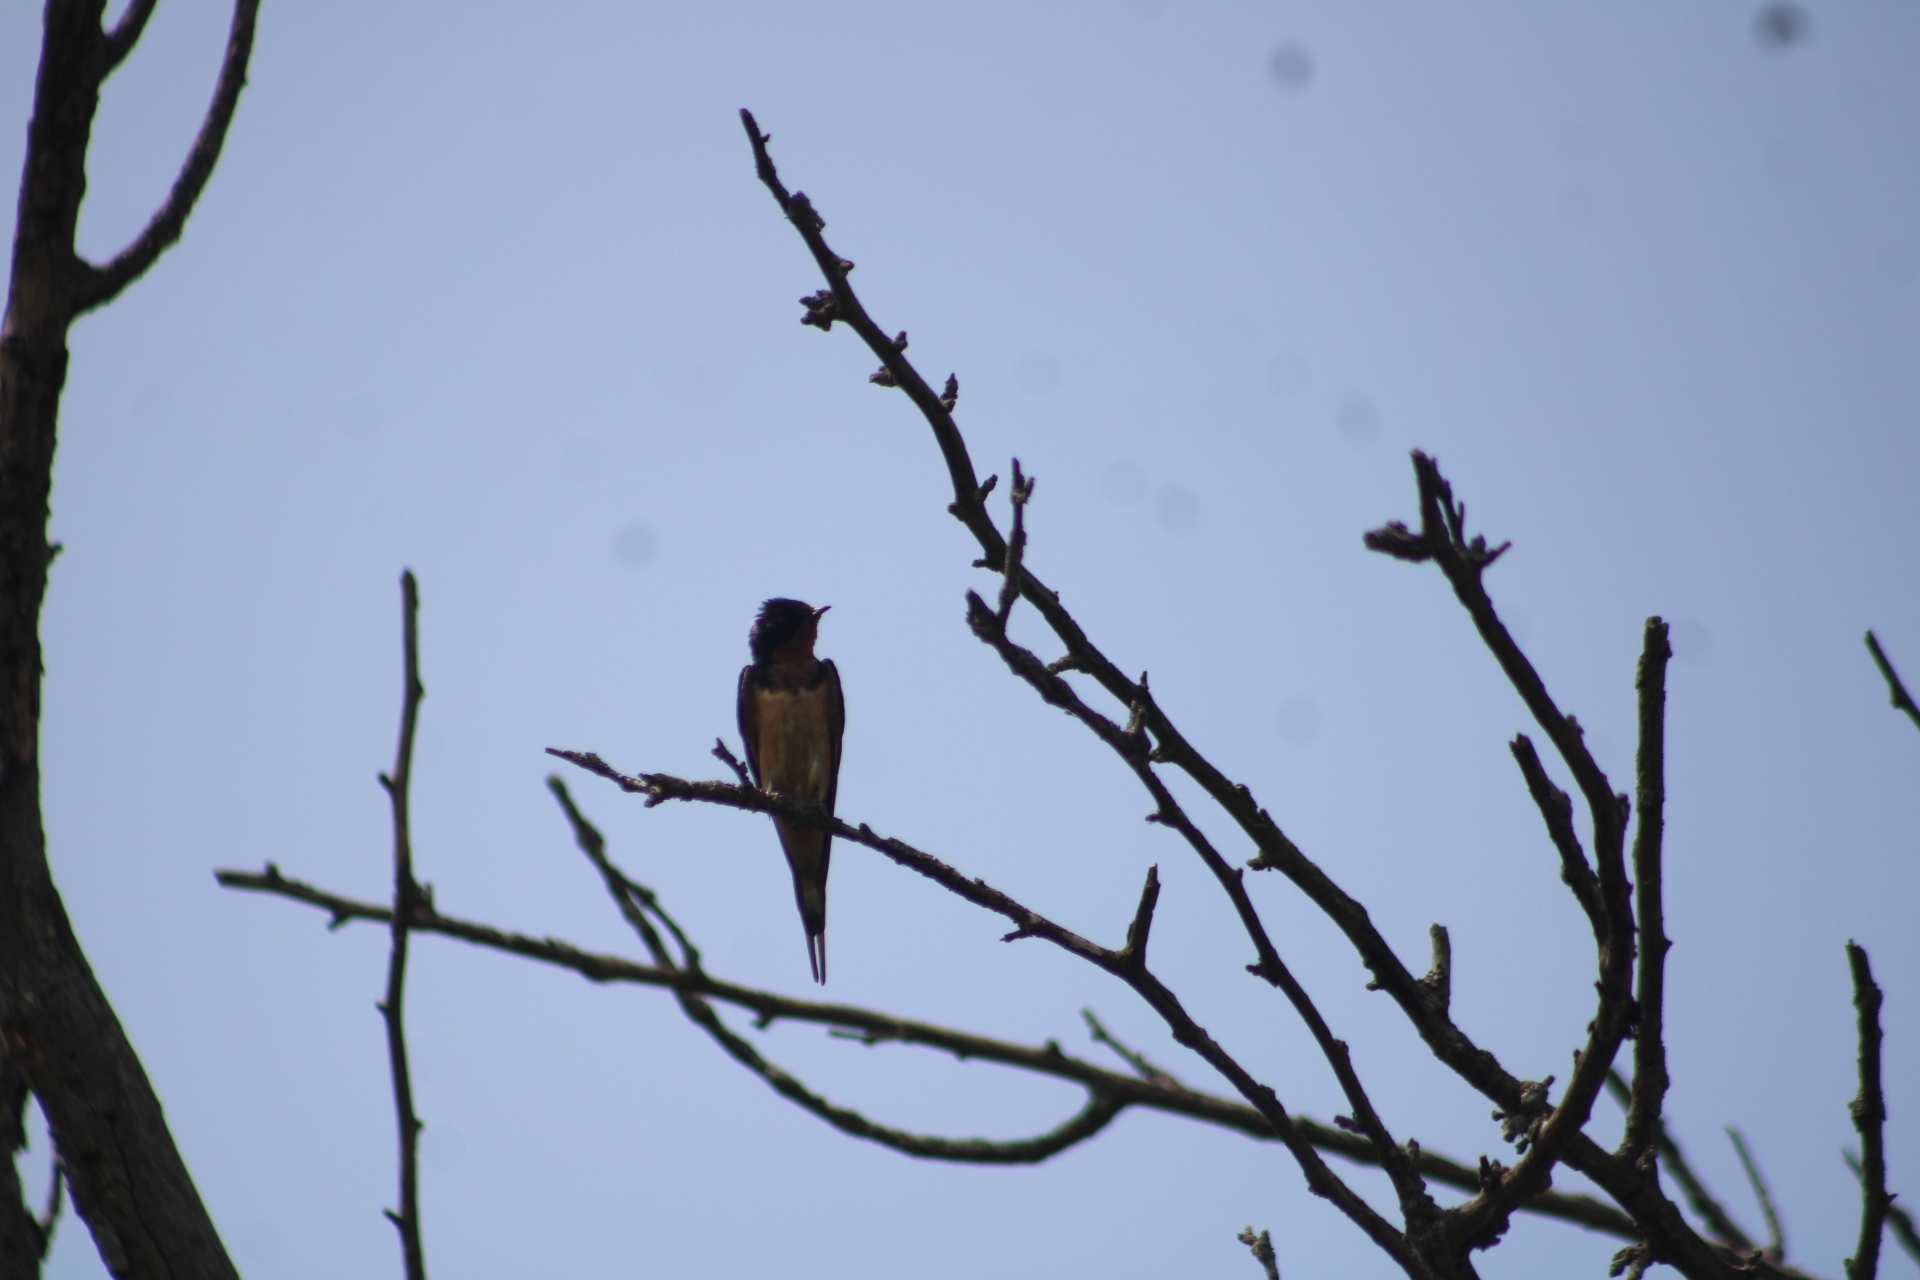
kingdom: Animalia
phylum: Chordata
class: Aves
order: Passeriformes
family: Hirundinidae
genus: Hirundo
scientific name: Hirundo rustica
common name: Barn swallow
